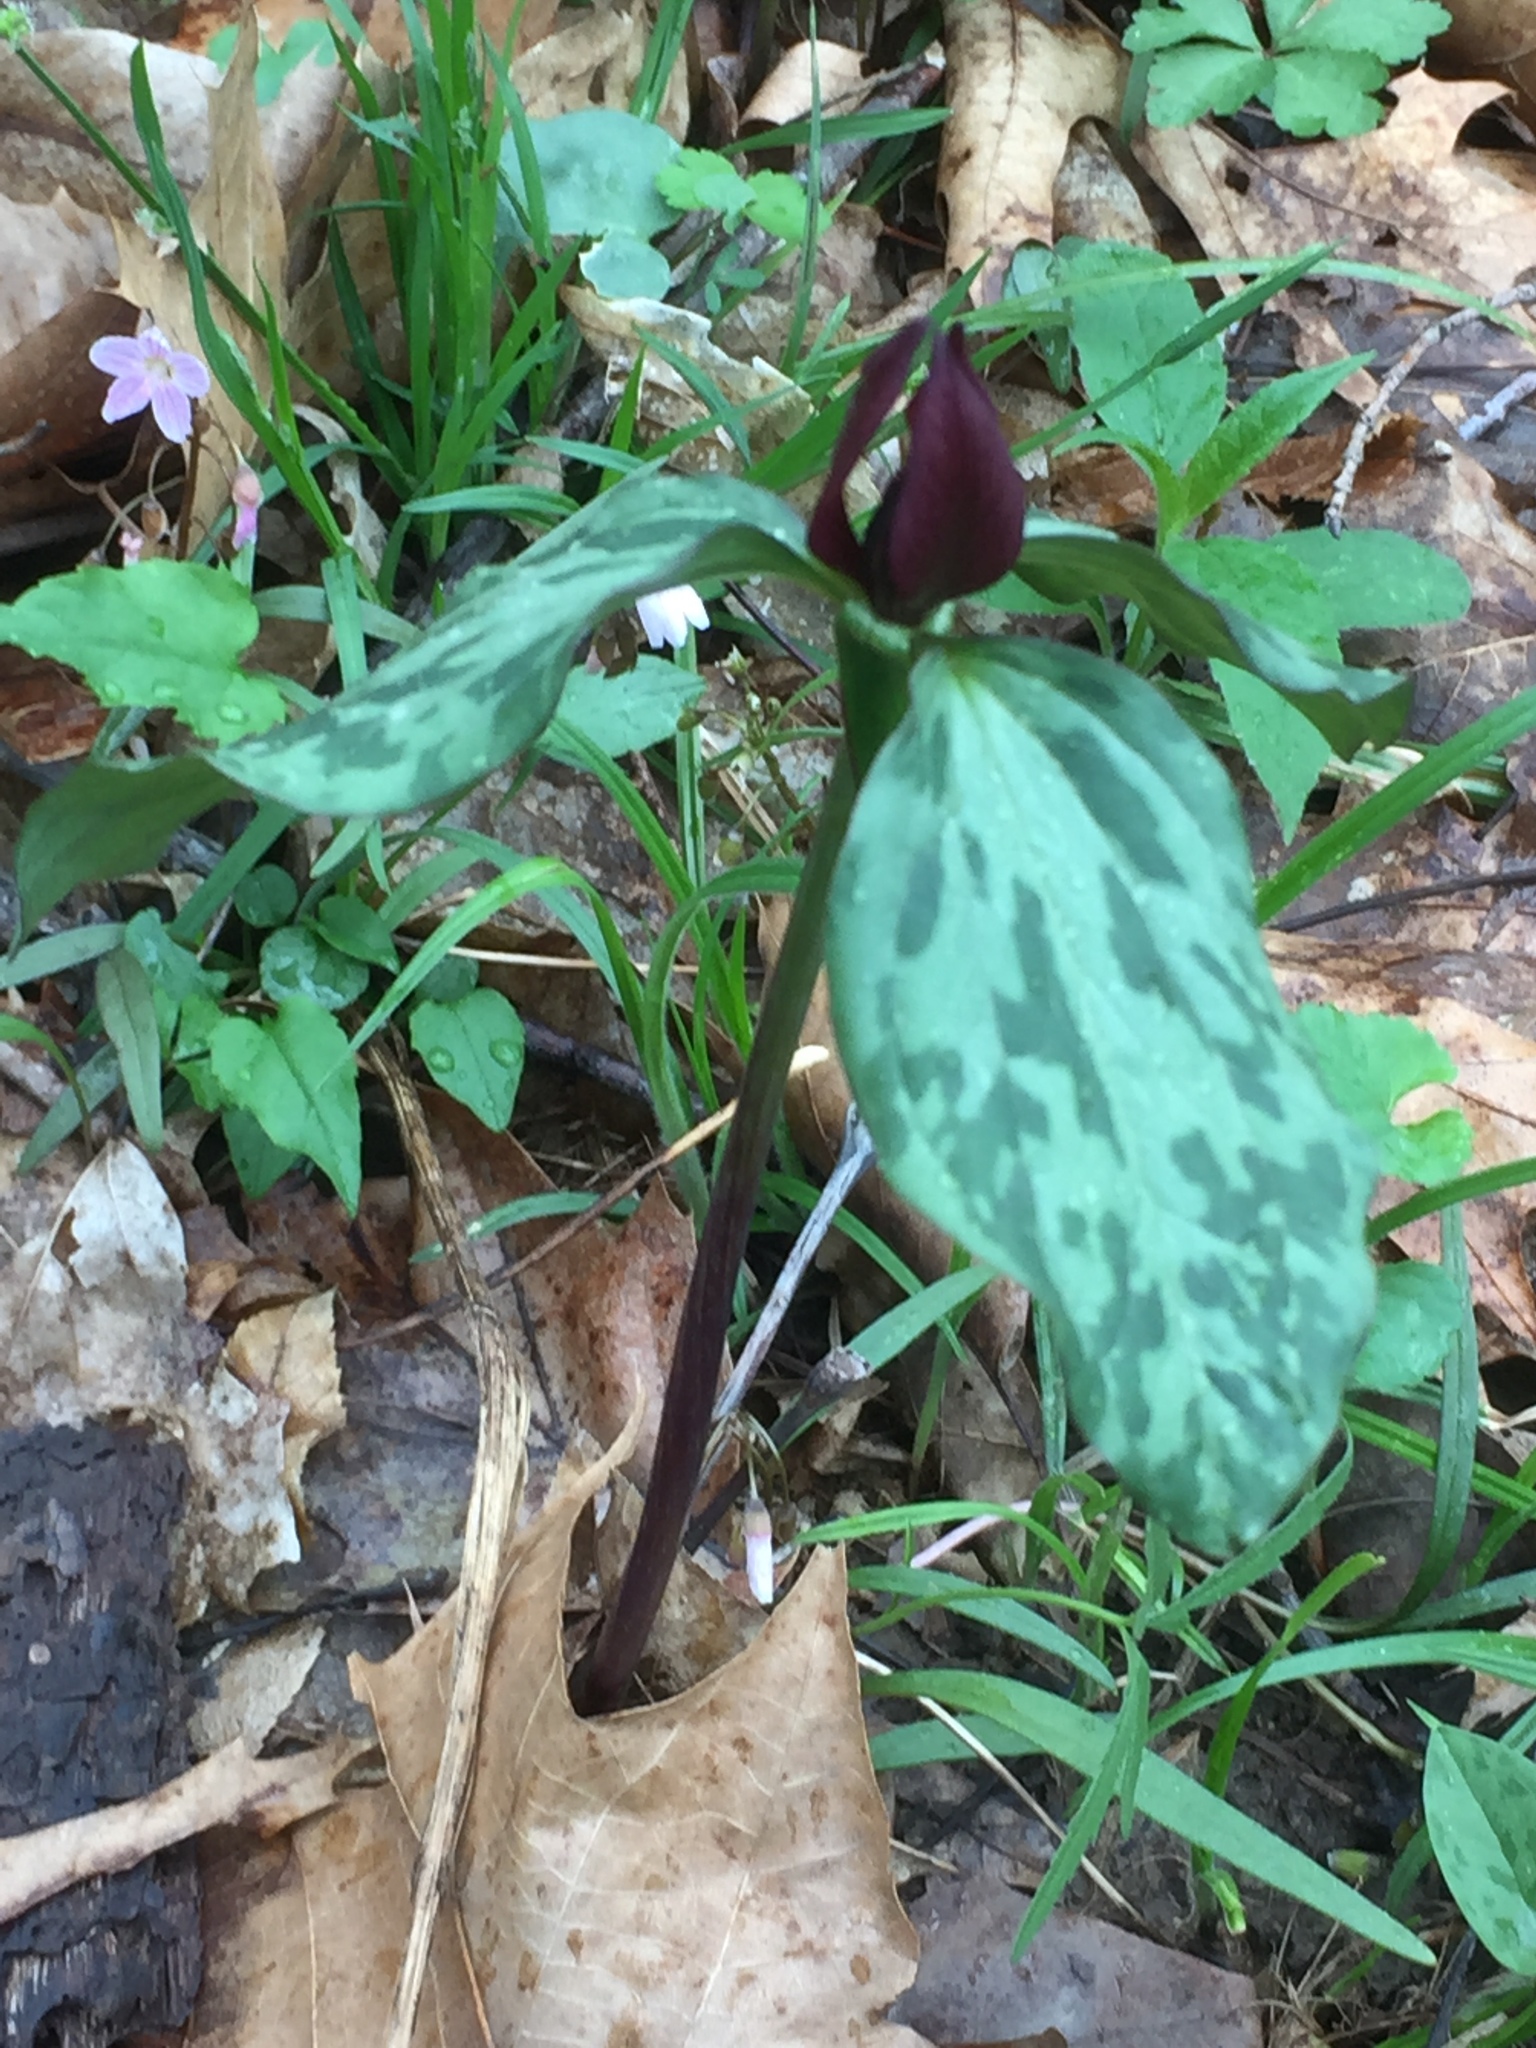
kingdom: Plantae
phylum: Tracheophyta
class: Liliopsida
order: Liliales
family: Melanthiaceae
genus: Trillium
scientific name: Trillium recurvatum
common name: Bloody butcher
